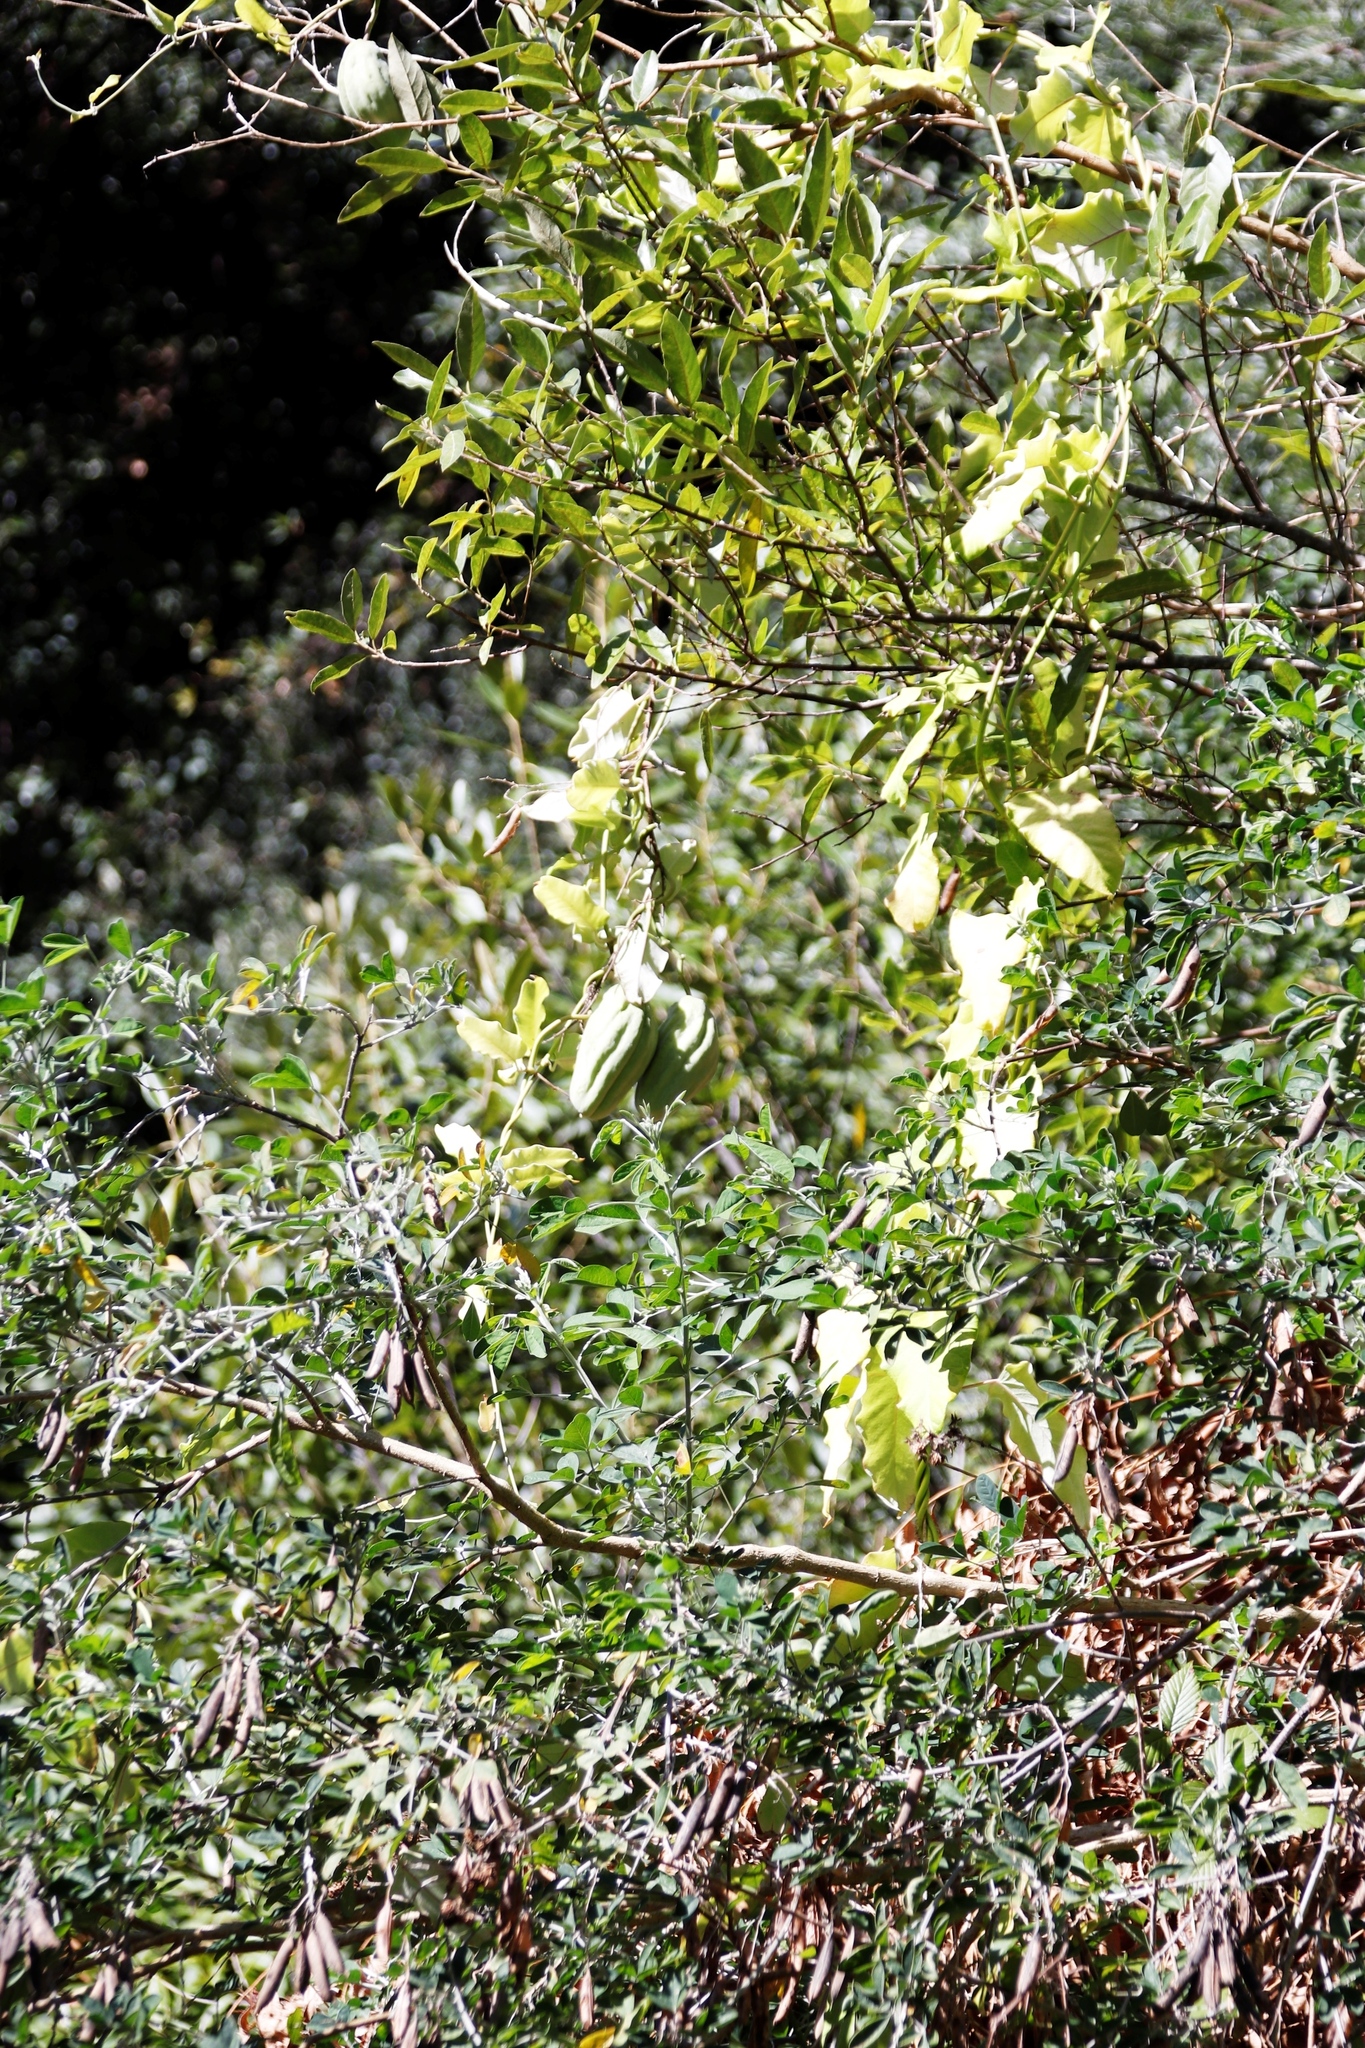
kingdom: Plantae
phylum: Tracheophyta
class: Magnoliopsida
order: Gentianales
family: Apocynaceae
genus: Araujia
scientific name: Araujia sericifera
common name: White bladderflower
